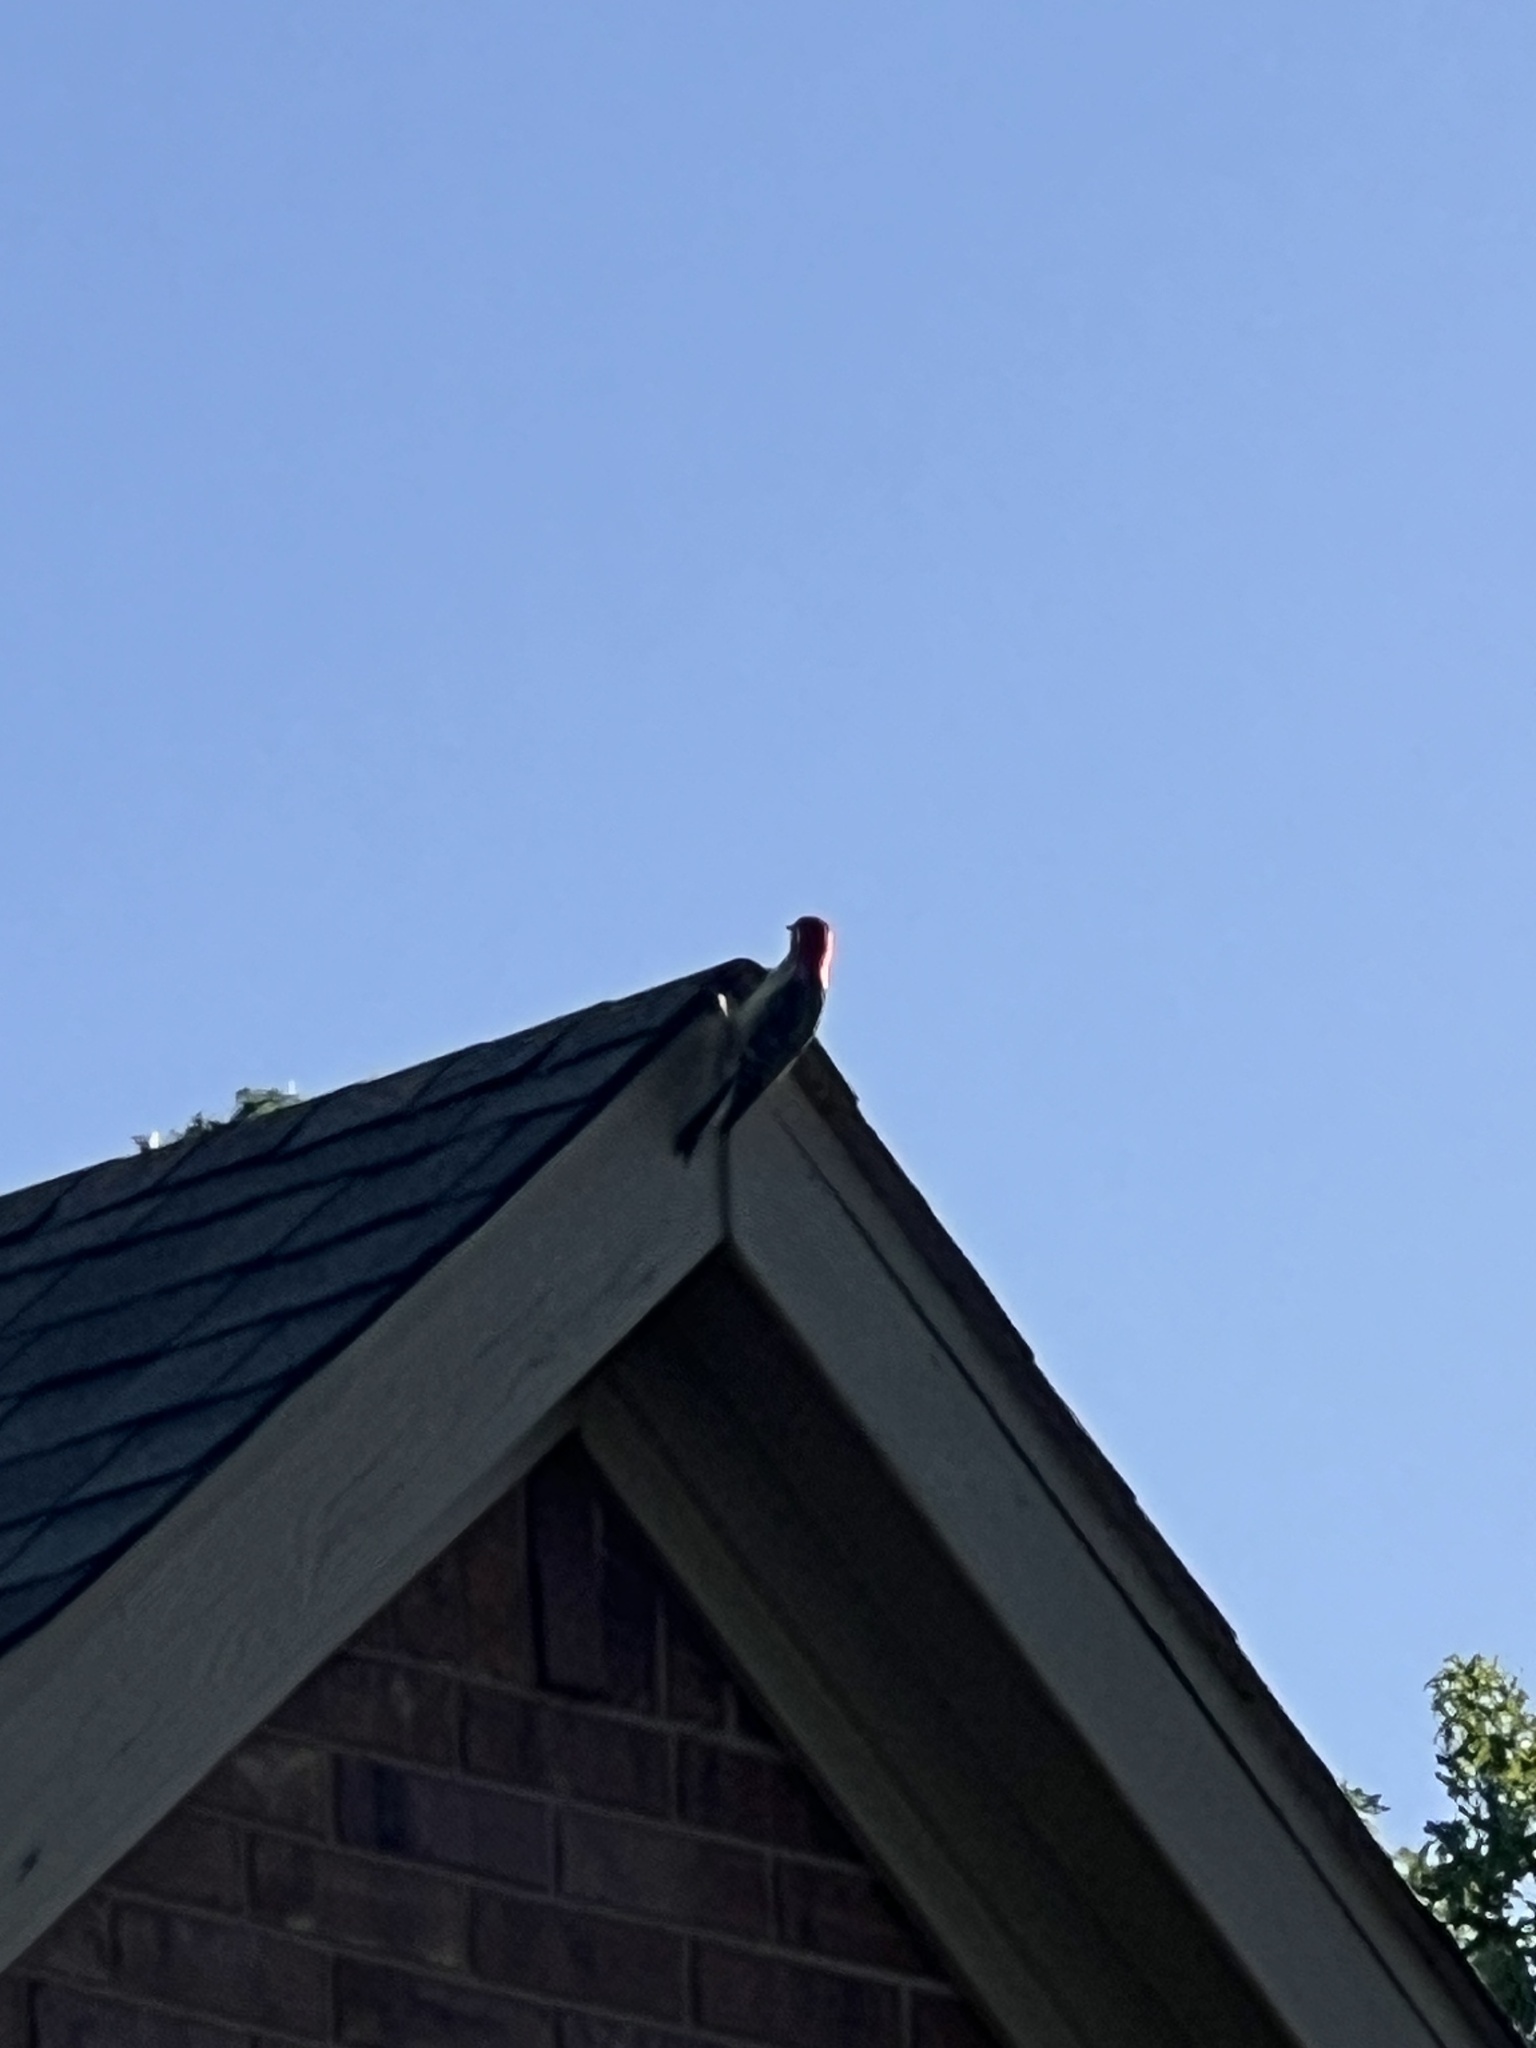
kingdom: Animalia
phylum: Chordata
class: Aves
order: Piciformes
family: Picidae
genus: Melanerpes
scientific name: Melanerpes carolinus
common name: Red-bellied woodpecker
